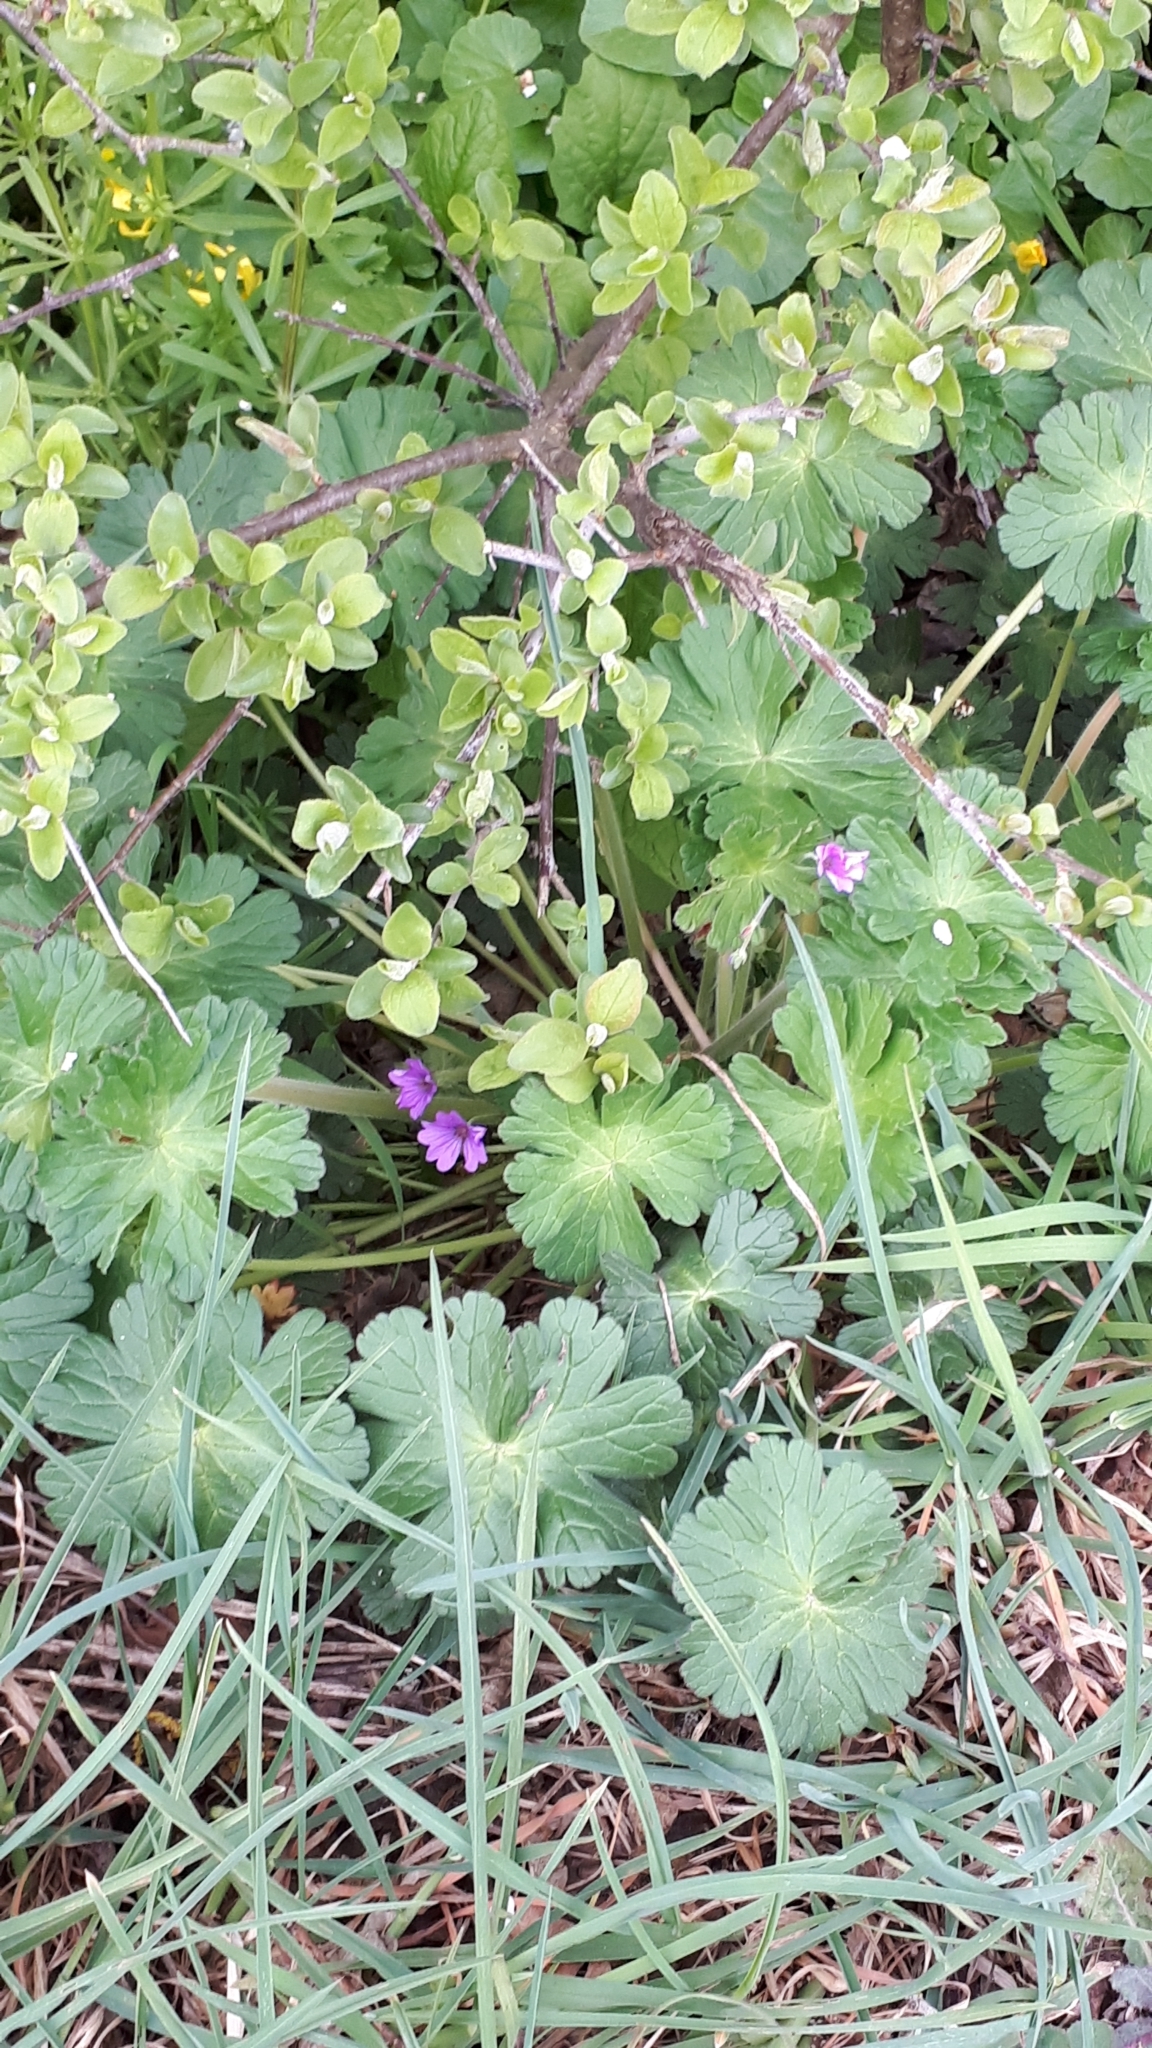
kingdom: Plantae
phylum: Tracheophyta
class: Magnoliopsida
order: Geraniales
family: Geraniaceae
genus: Geranium
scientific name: Geranium pyrenaicum
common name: Hedgerow crane's-bill
